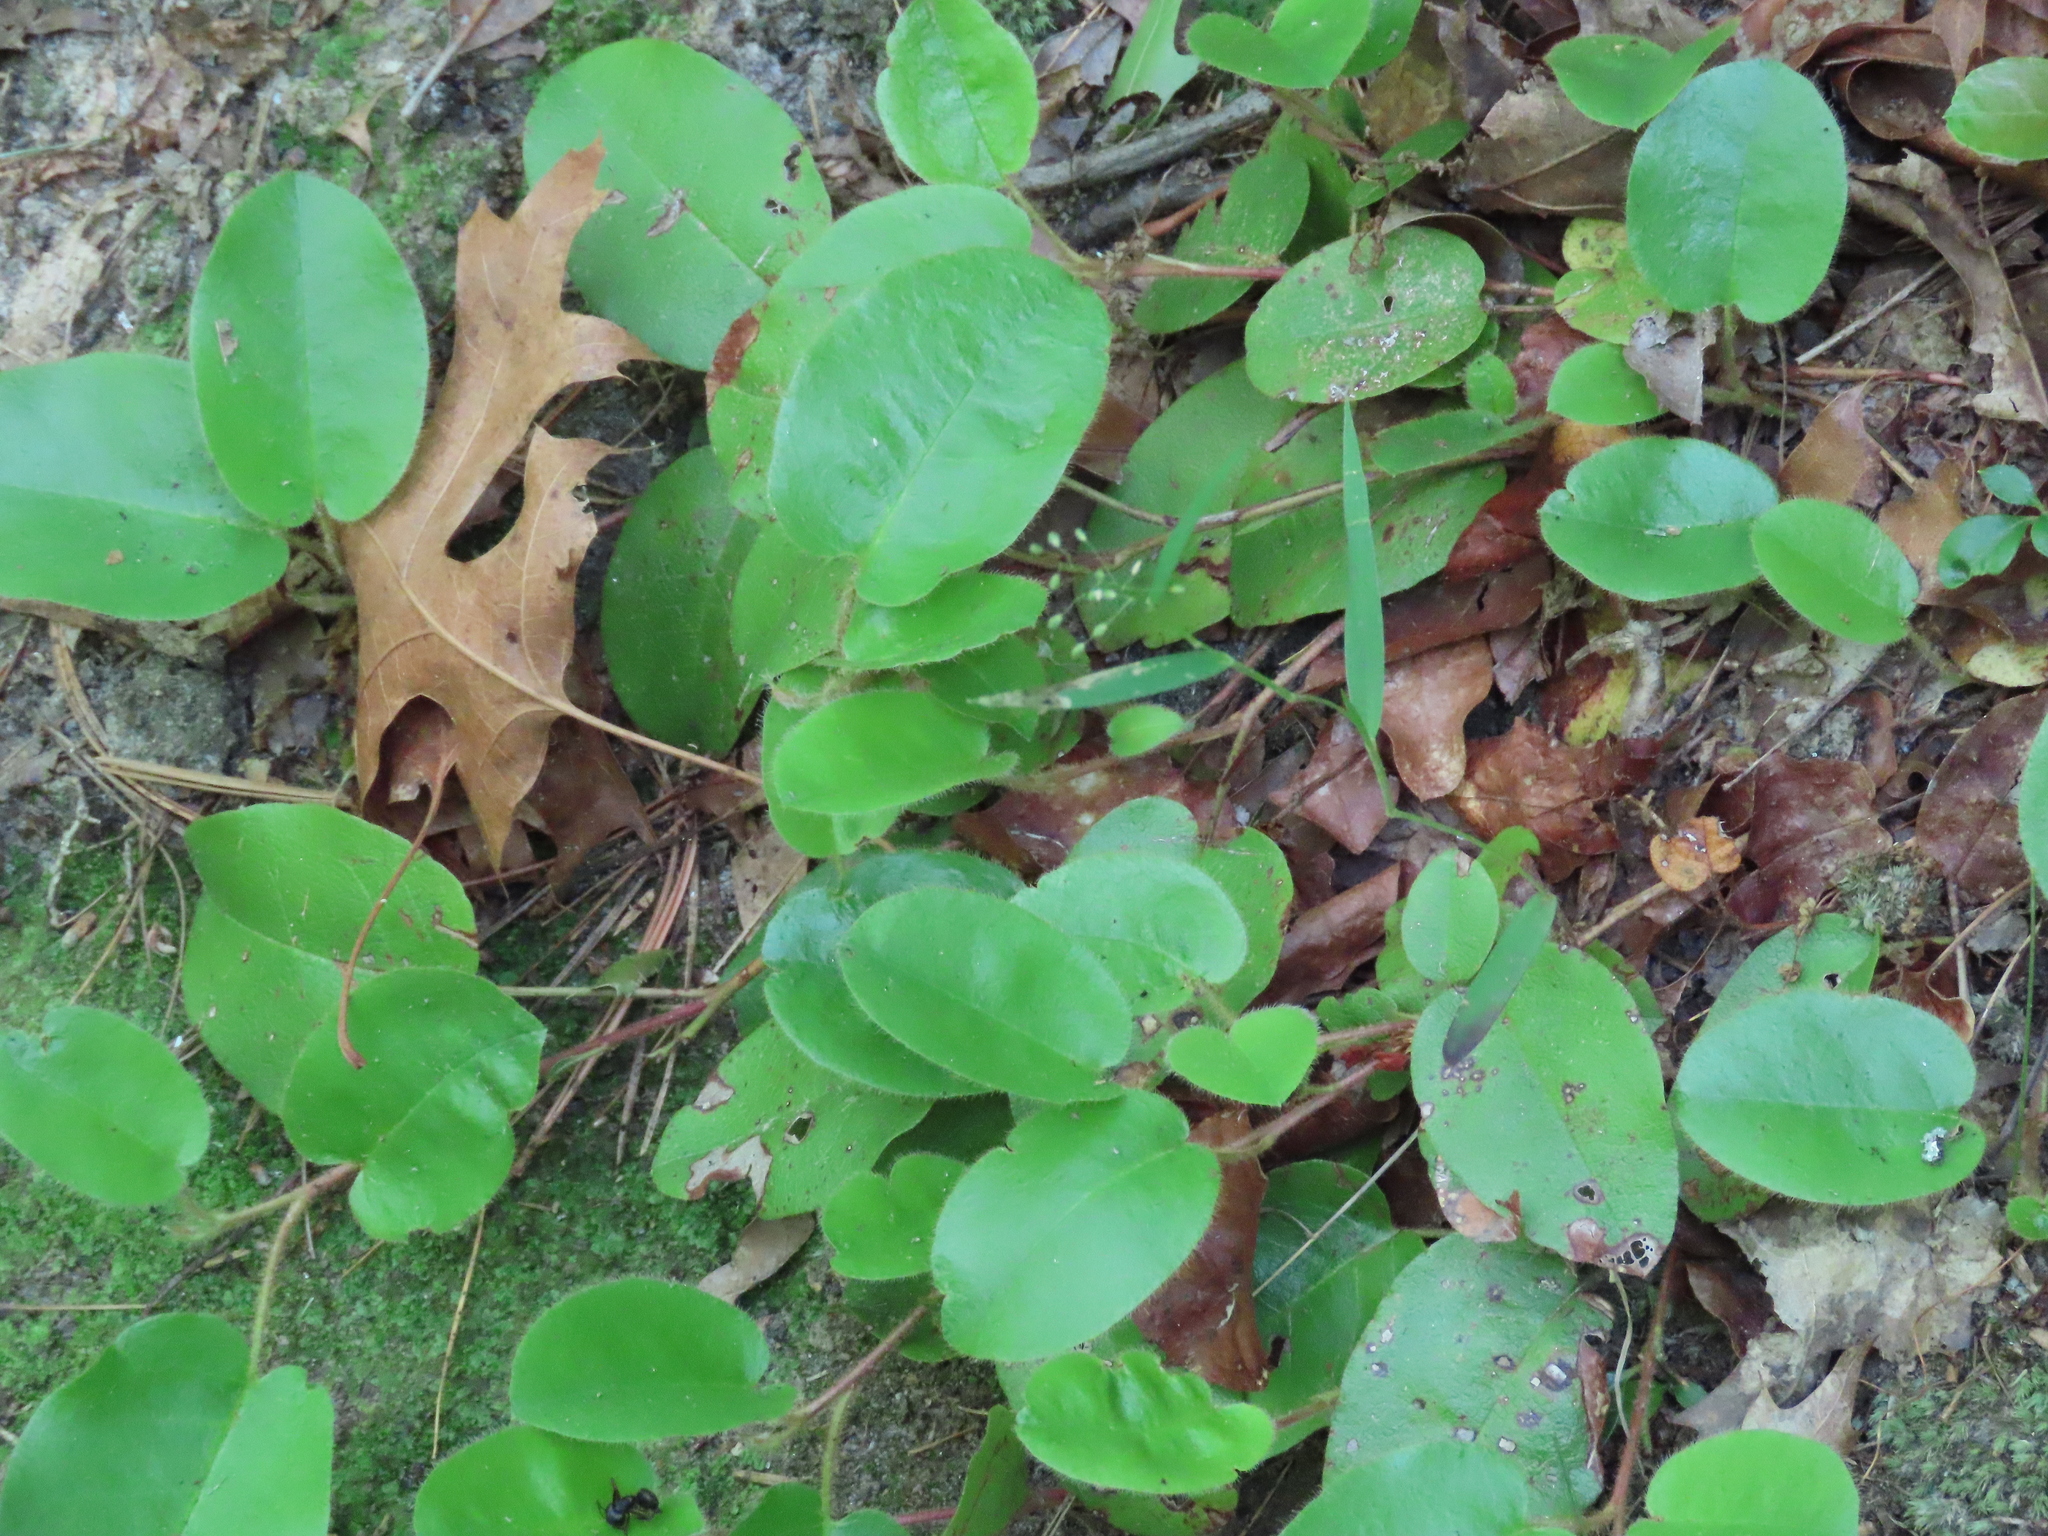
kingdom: Plantae
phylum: Tracheophyta
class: Magnoliopsida
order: Ericales
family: Ericaceae
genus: Epigaea
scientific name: Epigaea repens
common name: Gravelroot
